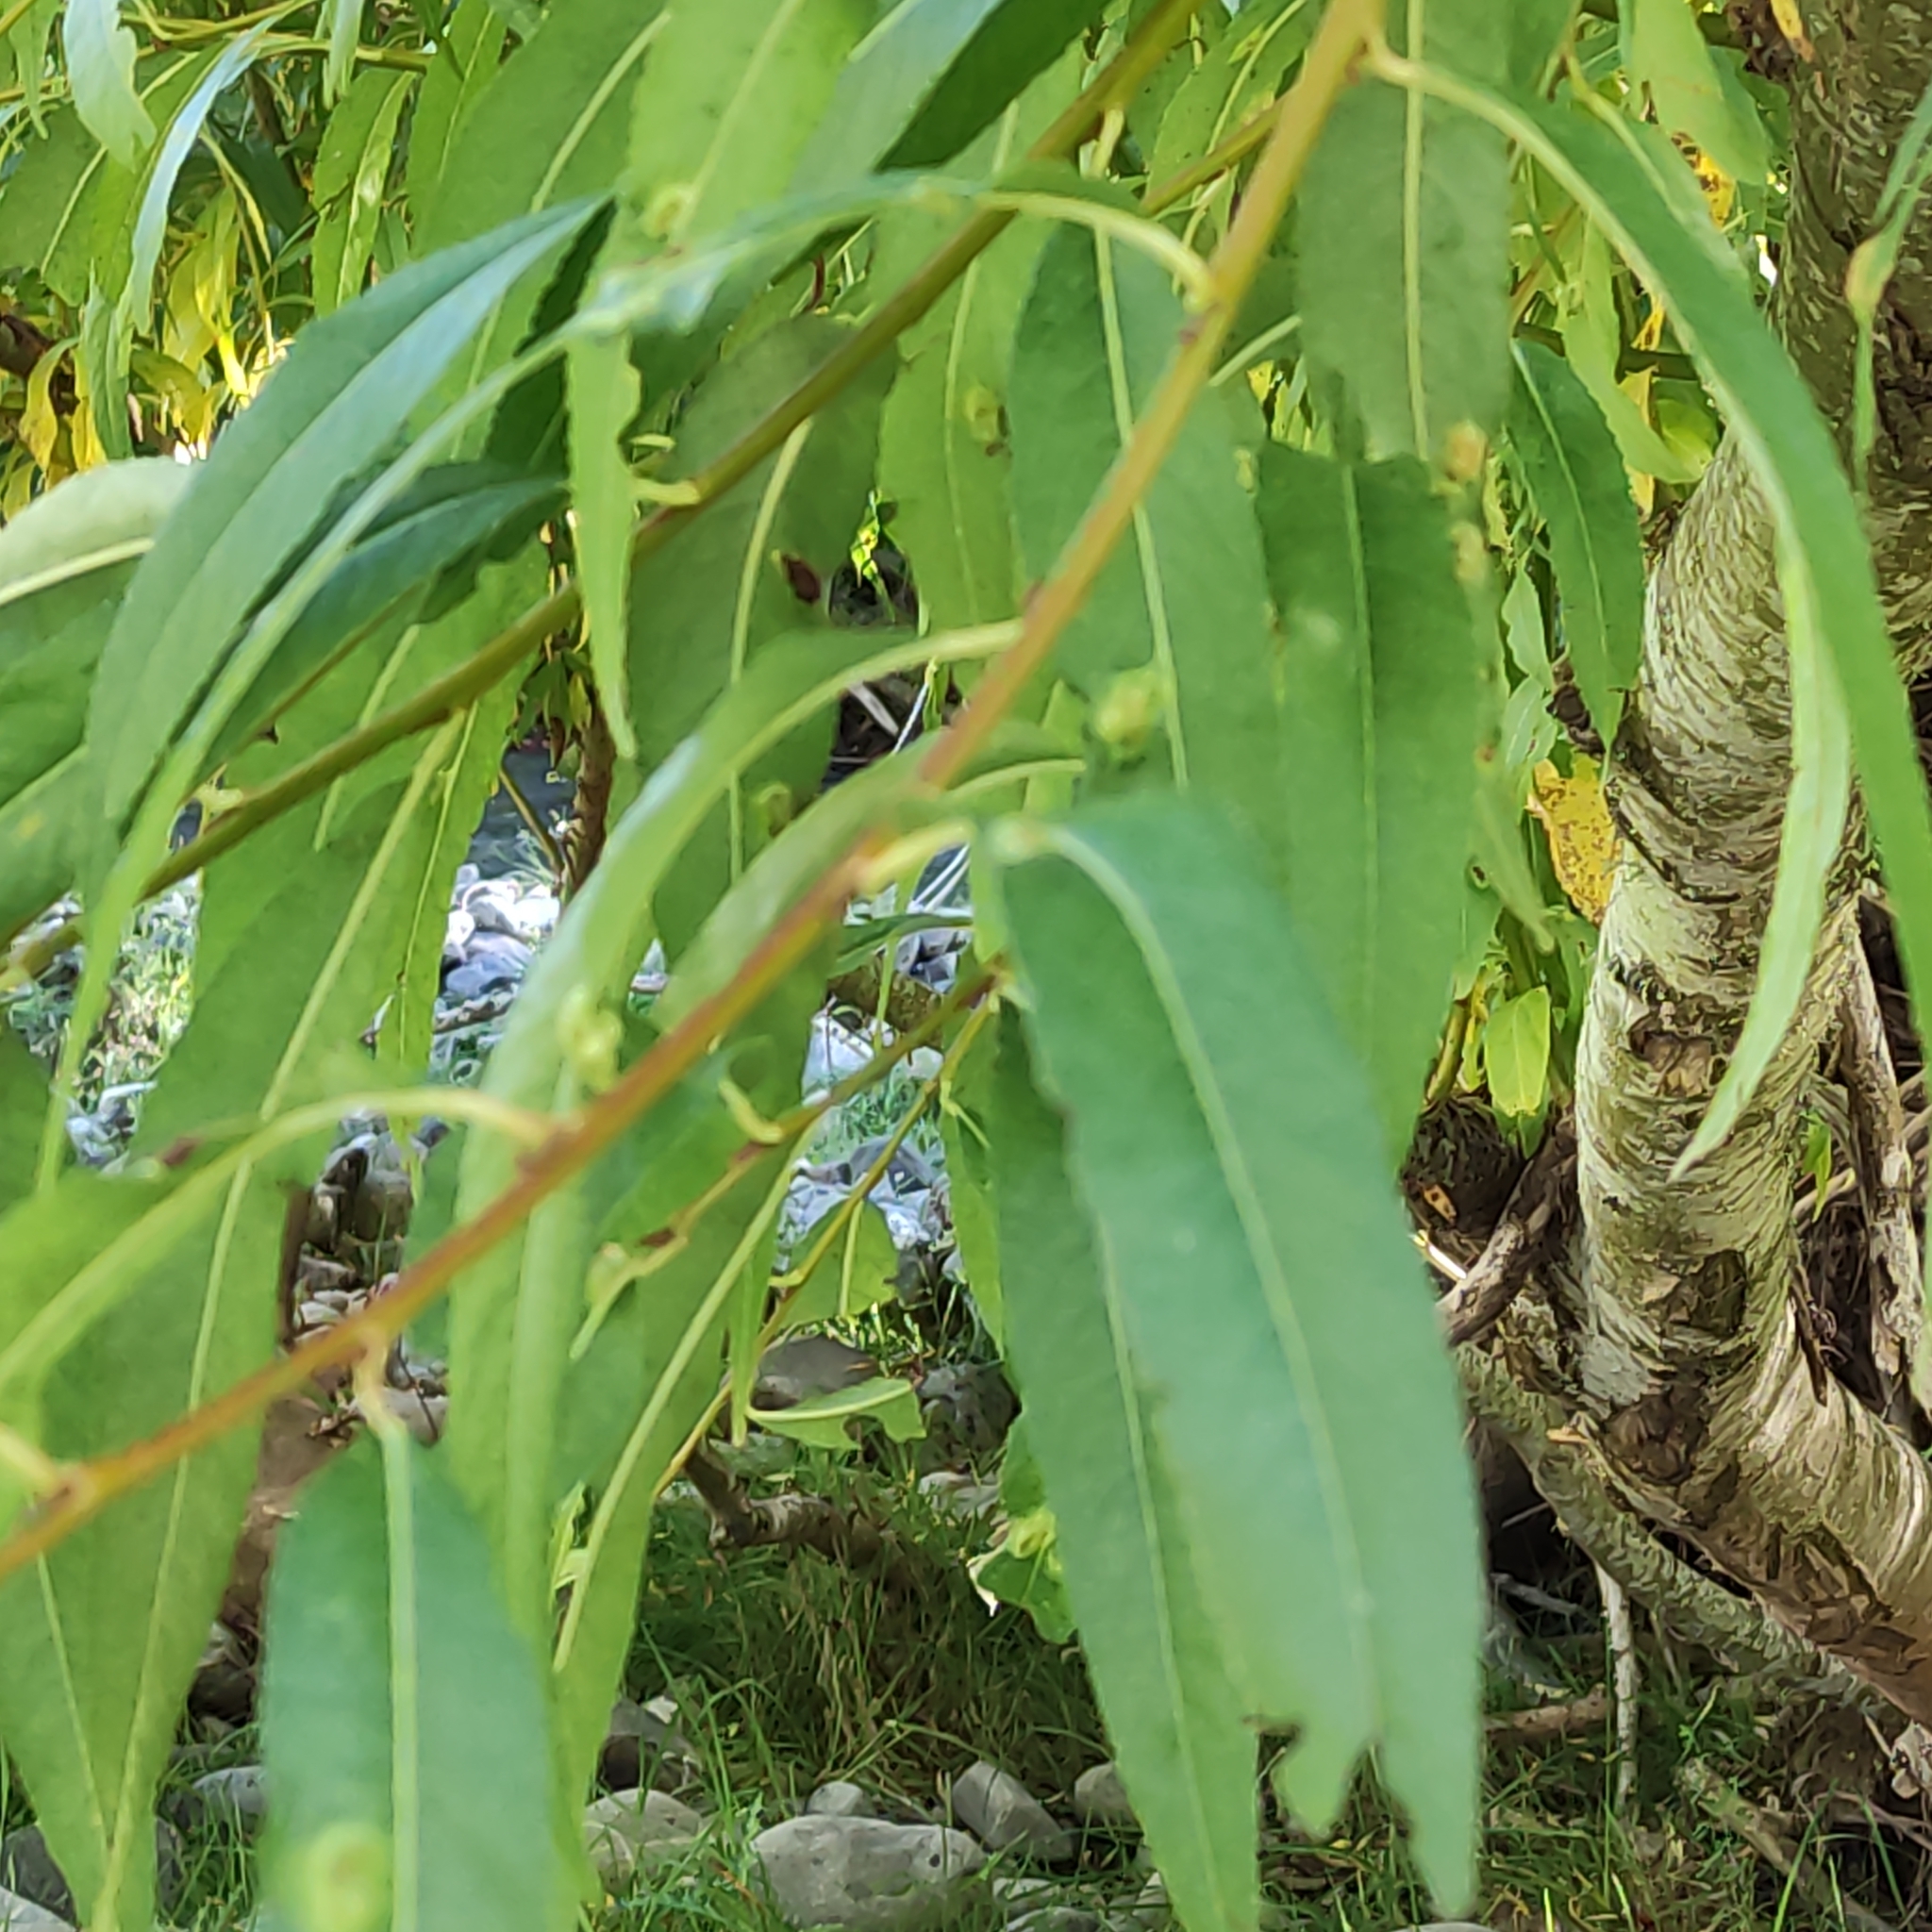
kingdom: Plantae
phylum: Tracheophyta
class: Magnoliopsida
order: Malpighiales
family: Salicaceae
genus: Salix
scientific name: Salix fragilis
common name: Crack willow
